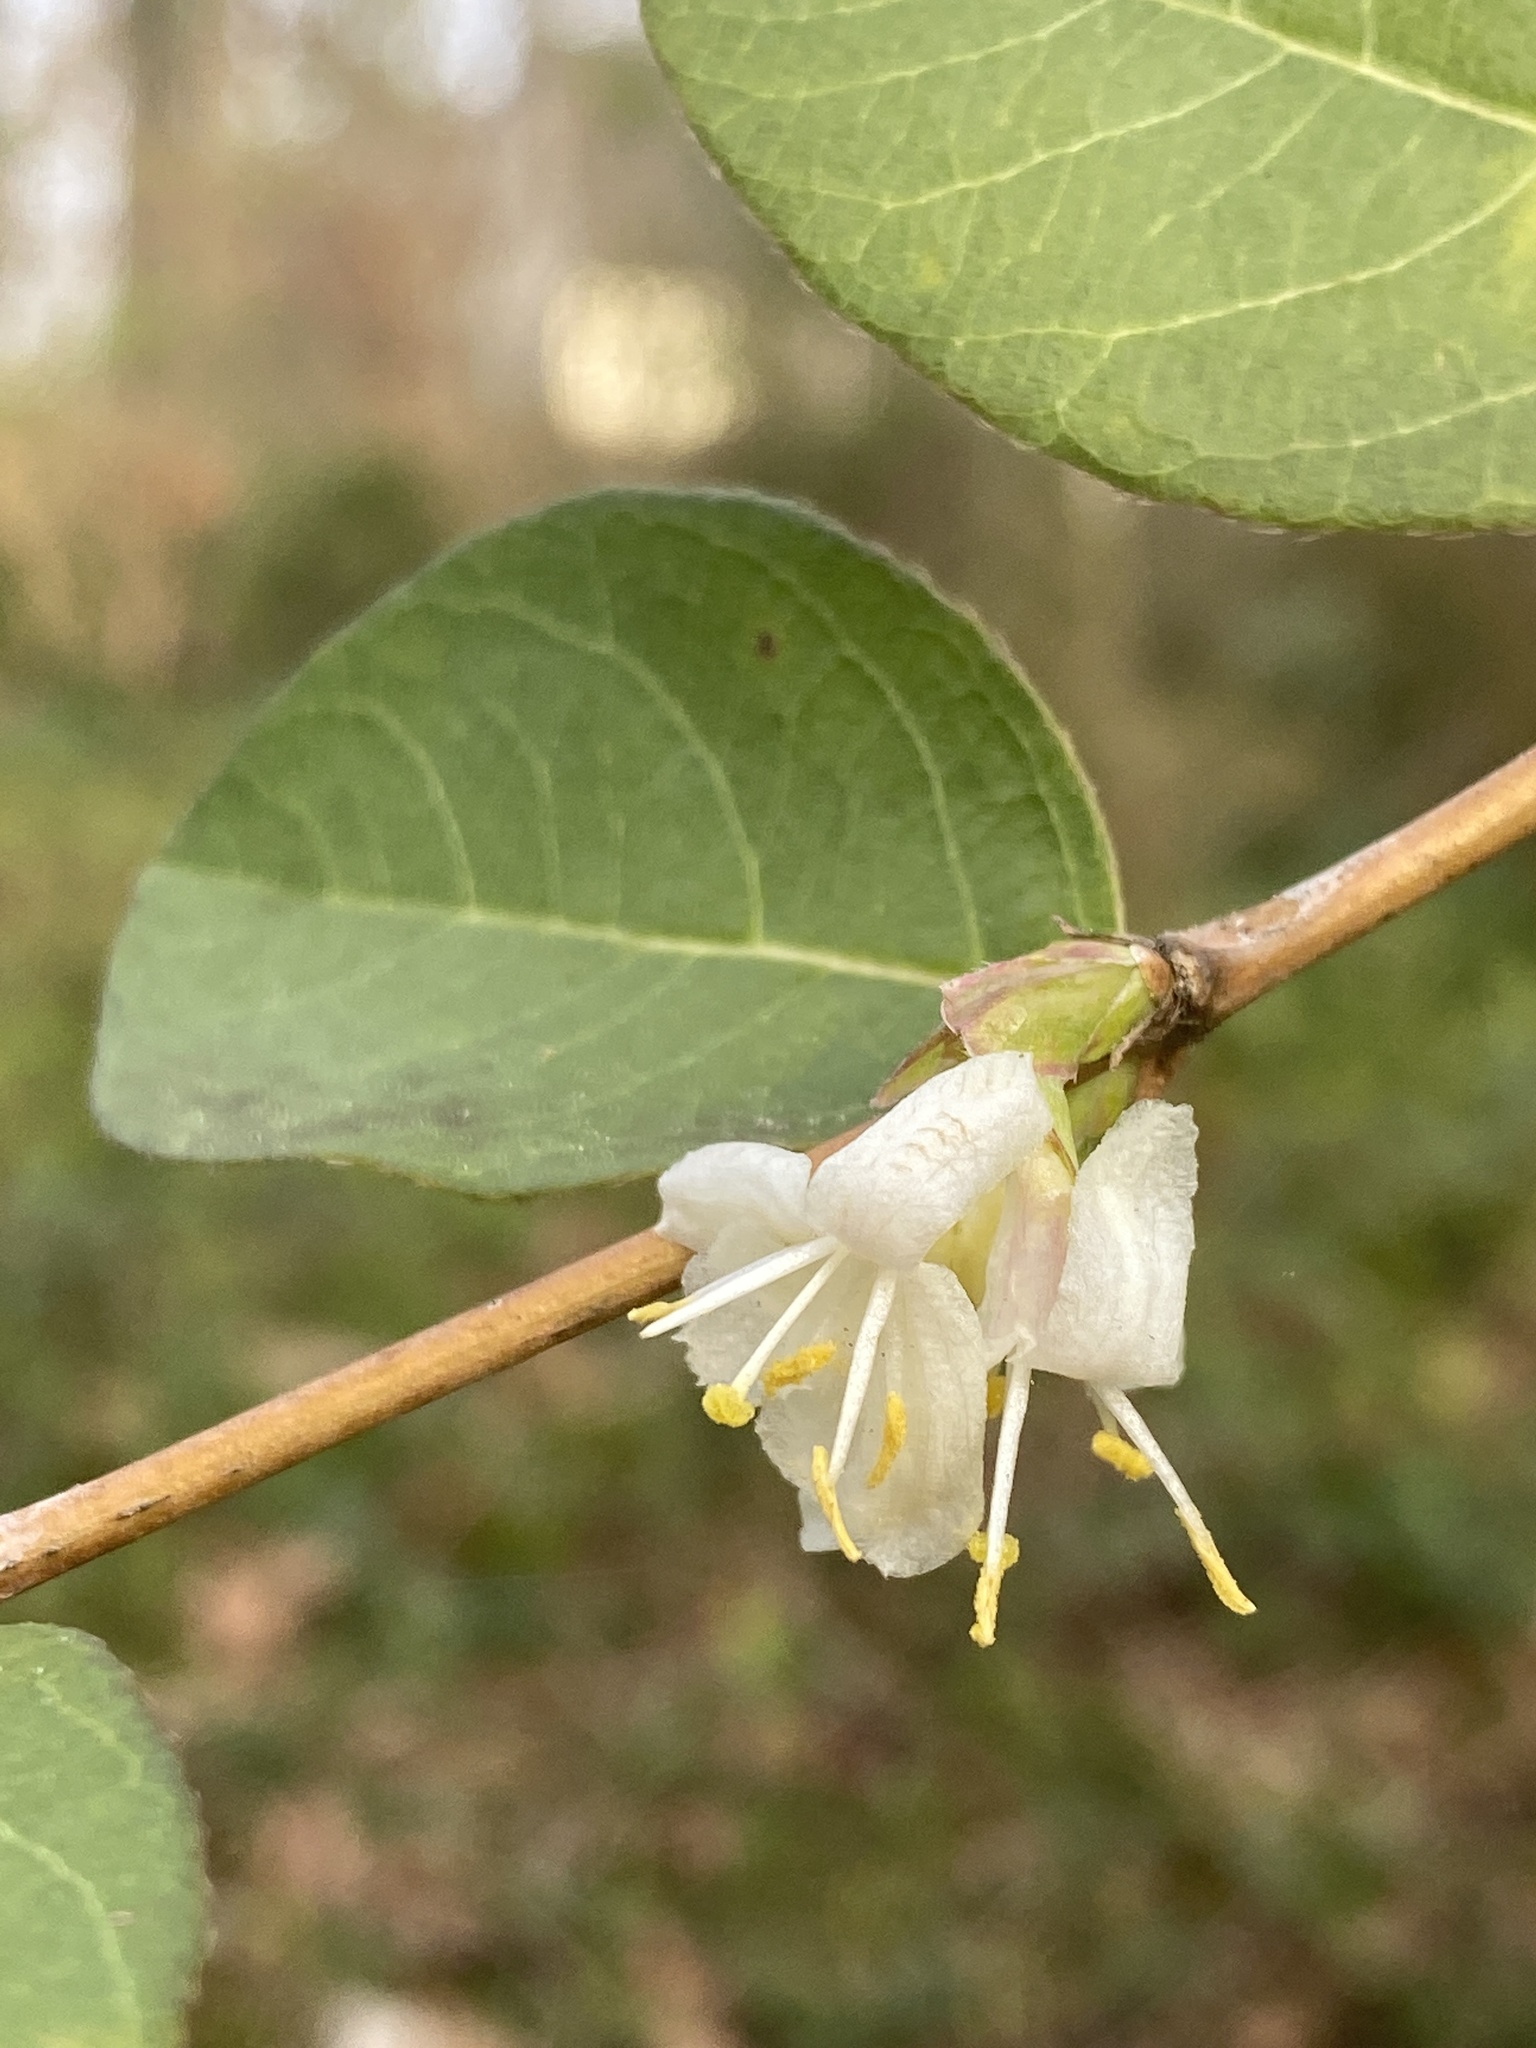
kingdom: Plantae
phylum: Tracheophyta
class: Magnoliopsida
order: Dipsacales
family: Caprifoliaceae
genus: Lonicera
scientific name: Lonicera fragrantissima
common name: Fragrant honeysuckle
